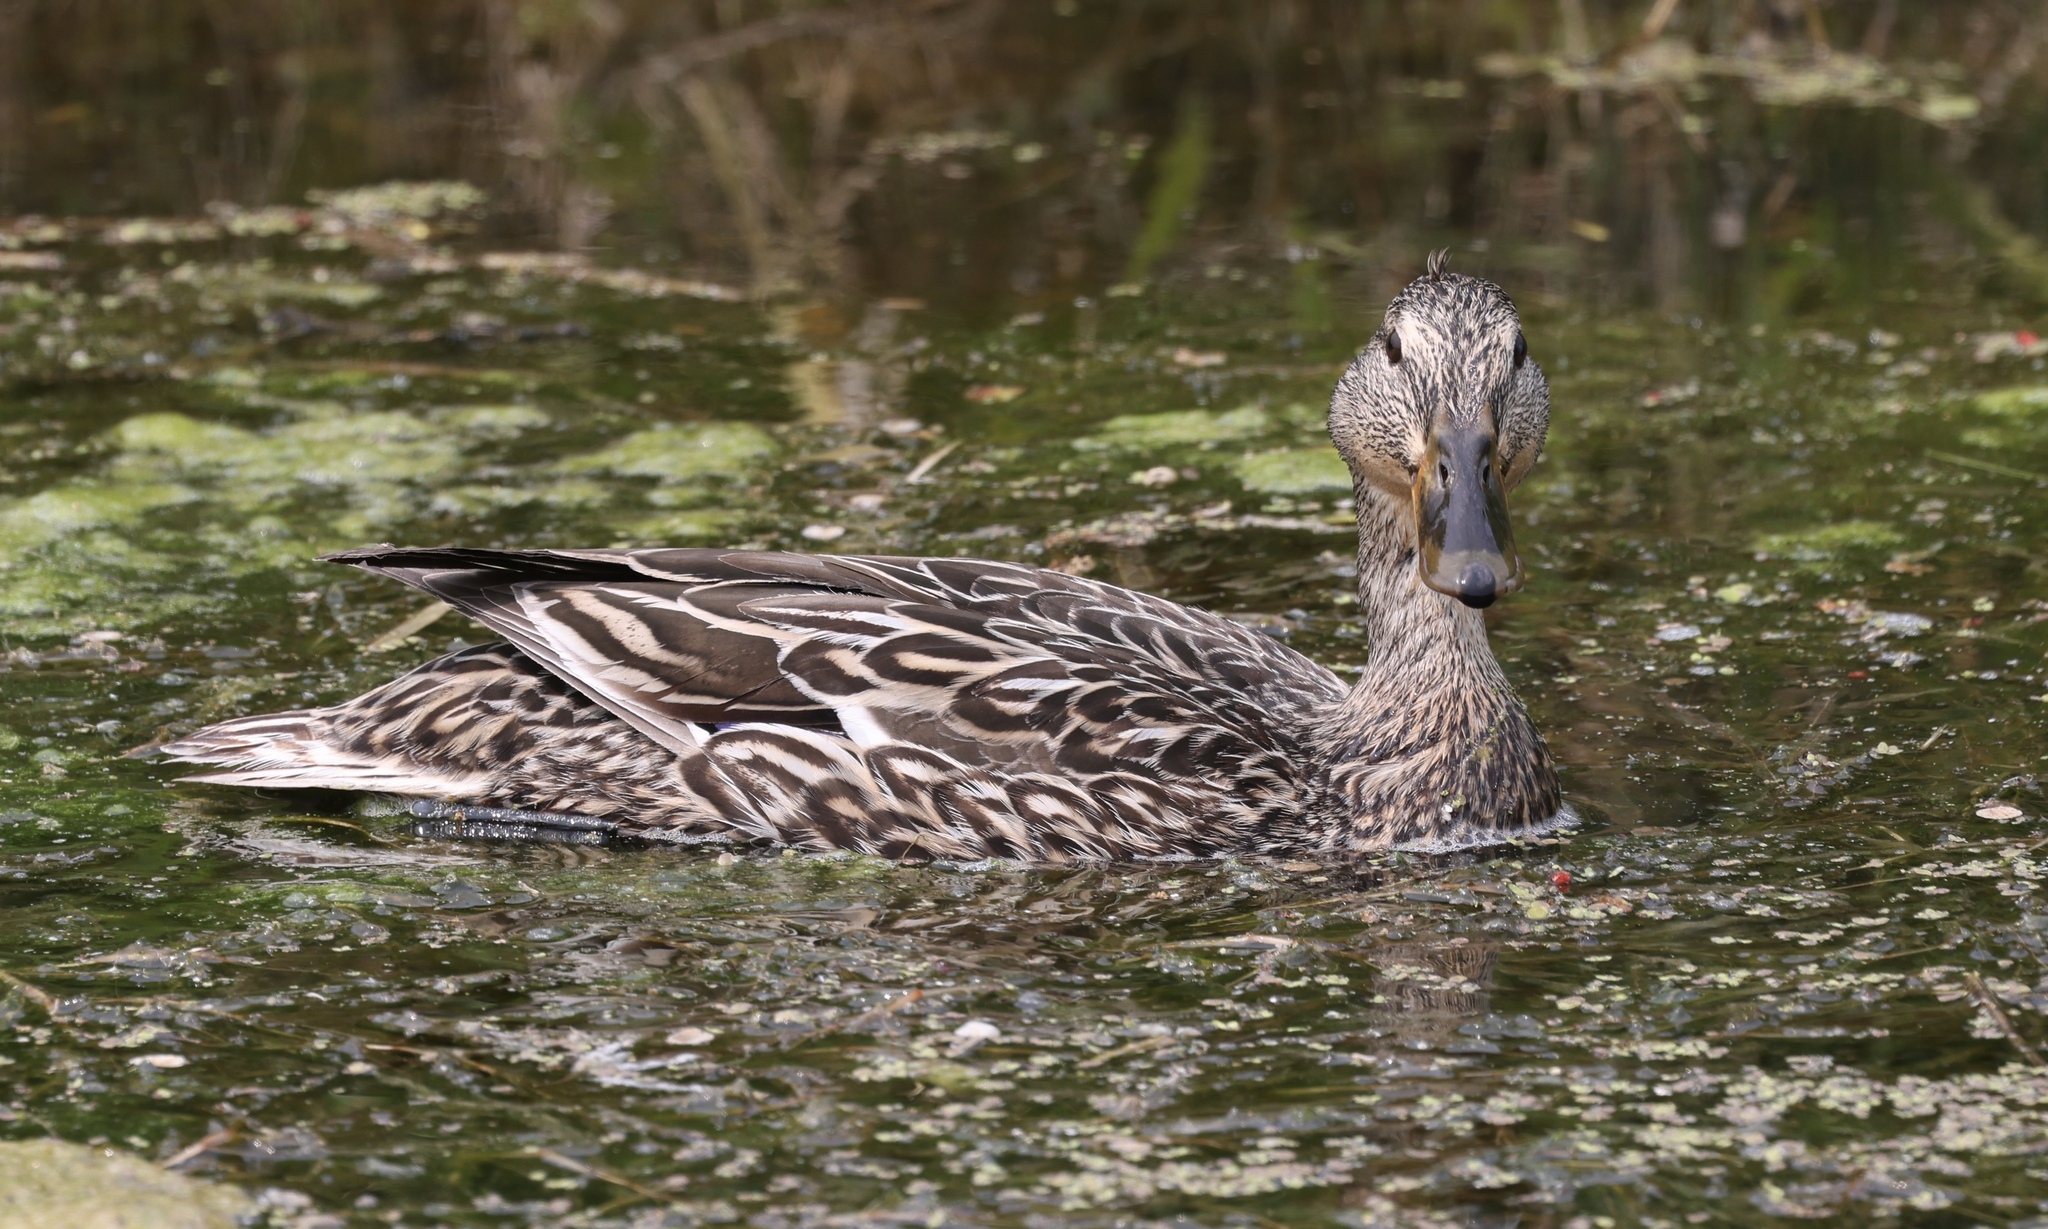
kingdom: Animalia
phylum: Chordata
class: Aves
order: Anseriformes
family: Anatidae
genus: Anas
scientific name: Anas platyrhynchos
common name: Mallard
